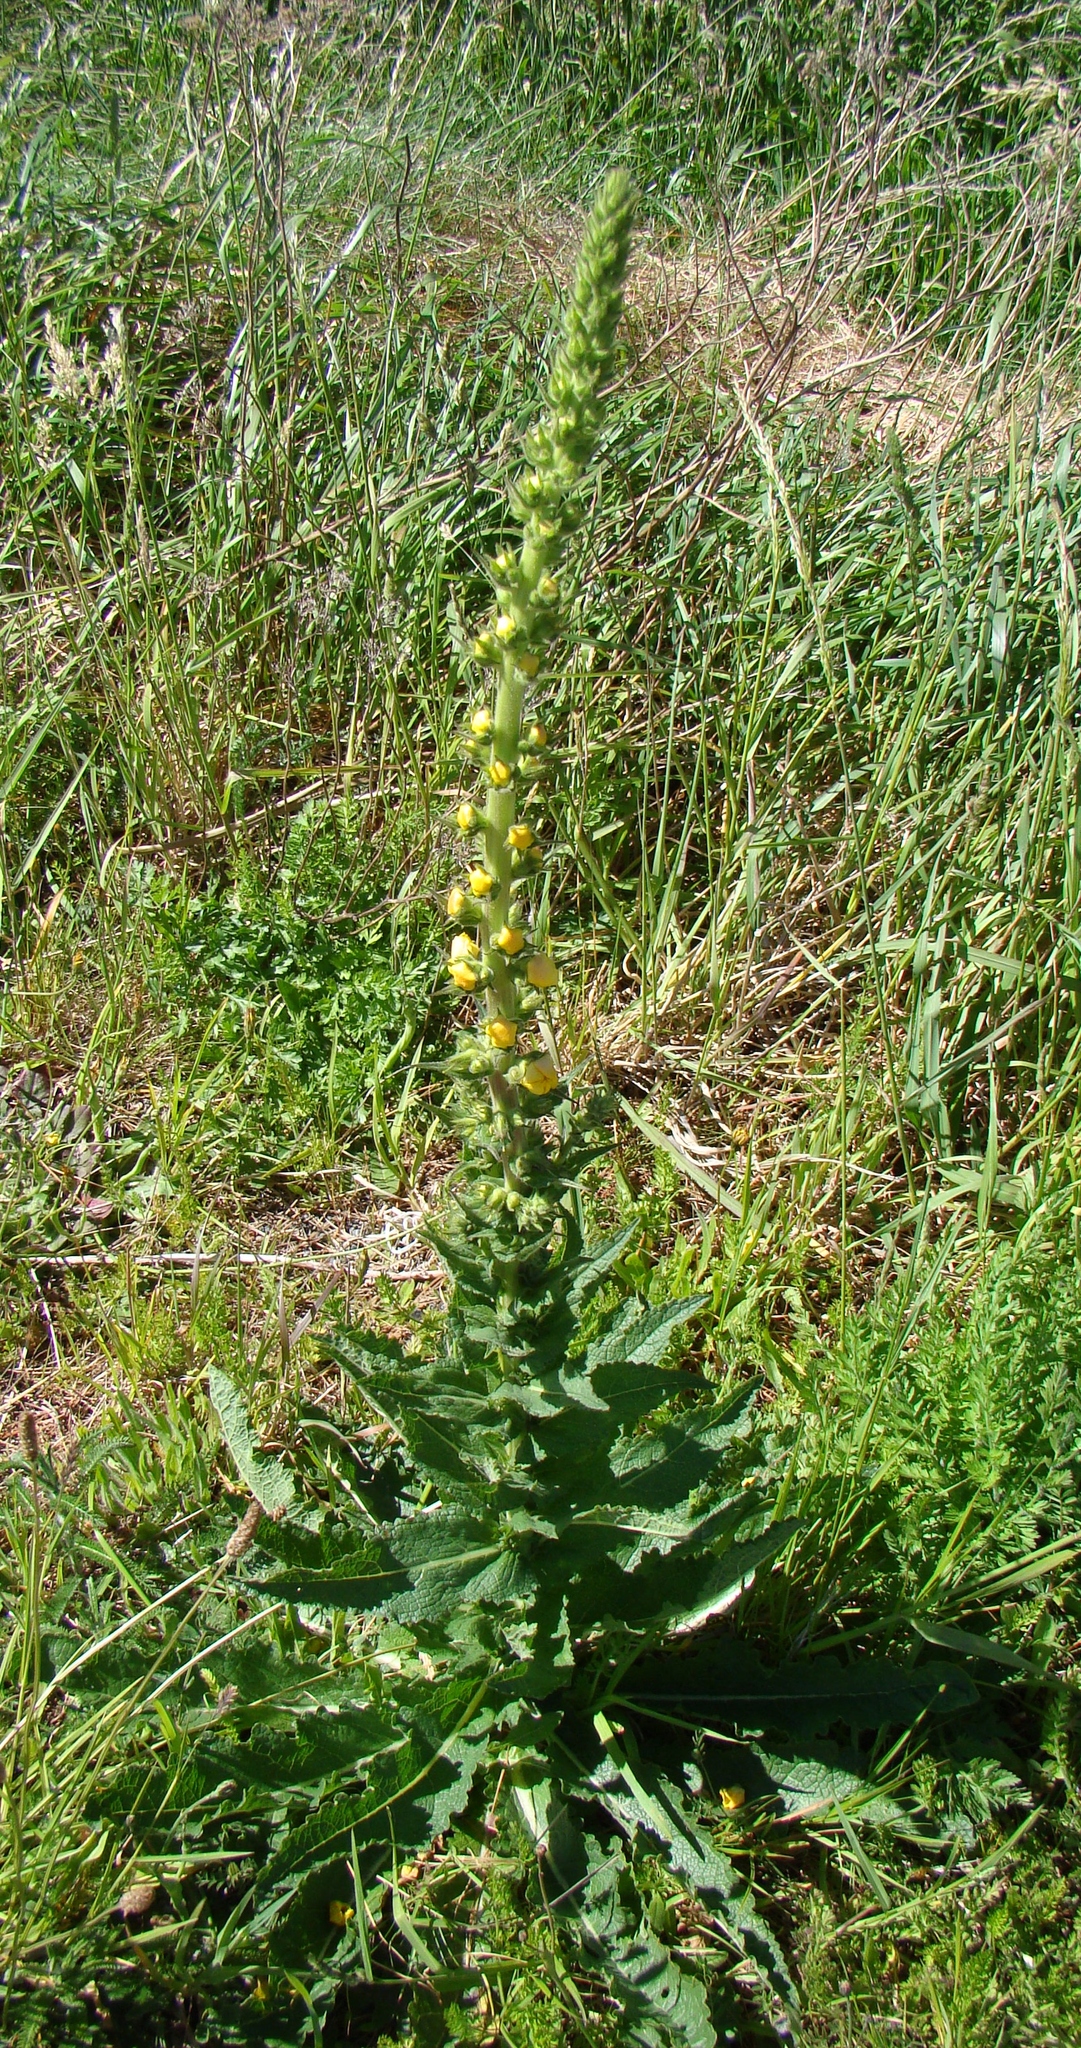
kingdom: Plantae
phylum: Tracheophyta
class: Magnoliopsida
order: Lamiales
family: Scrophulariaceae
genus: Verbascum
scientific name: Verbascum virgatum
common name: Twiggy mullein
